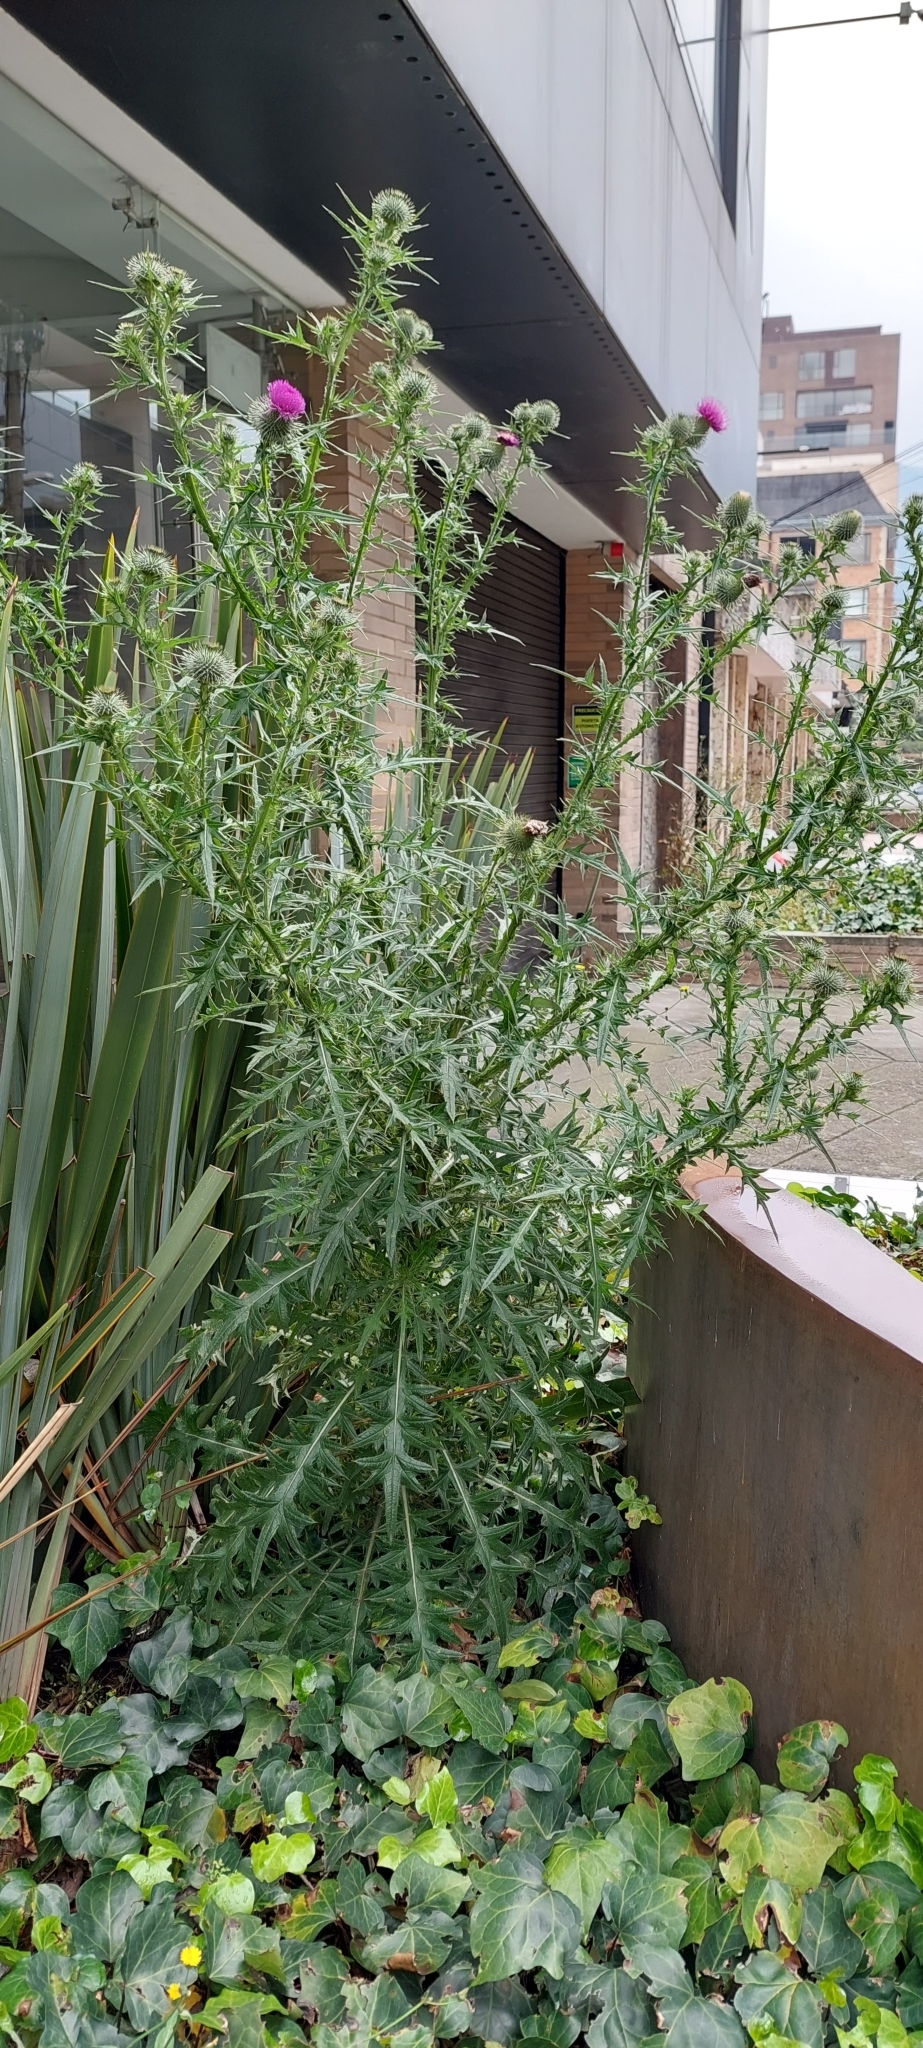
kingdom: Plantae
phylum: Tracheophyta
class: Magnoliopsida
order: Asterales
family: Asteraceae
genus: Cirsium
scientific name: Cirsium vulgare
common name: Bull thistle
